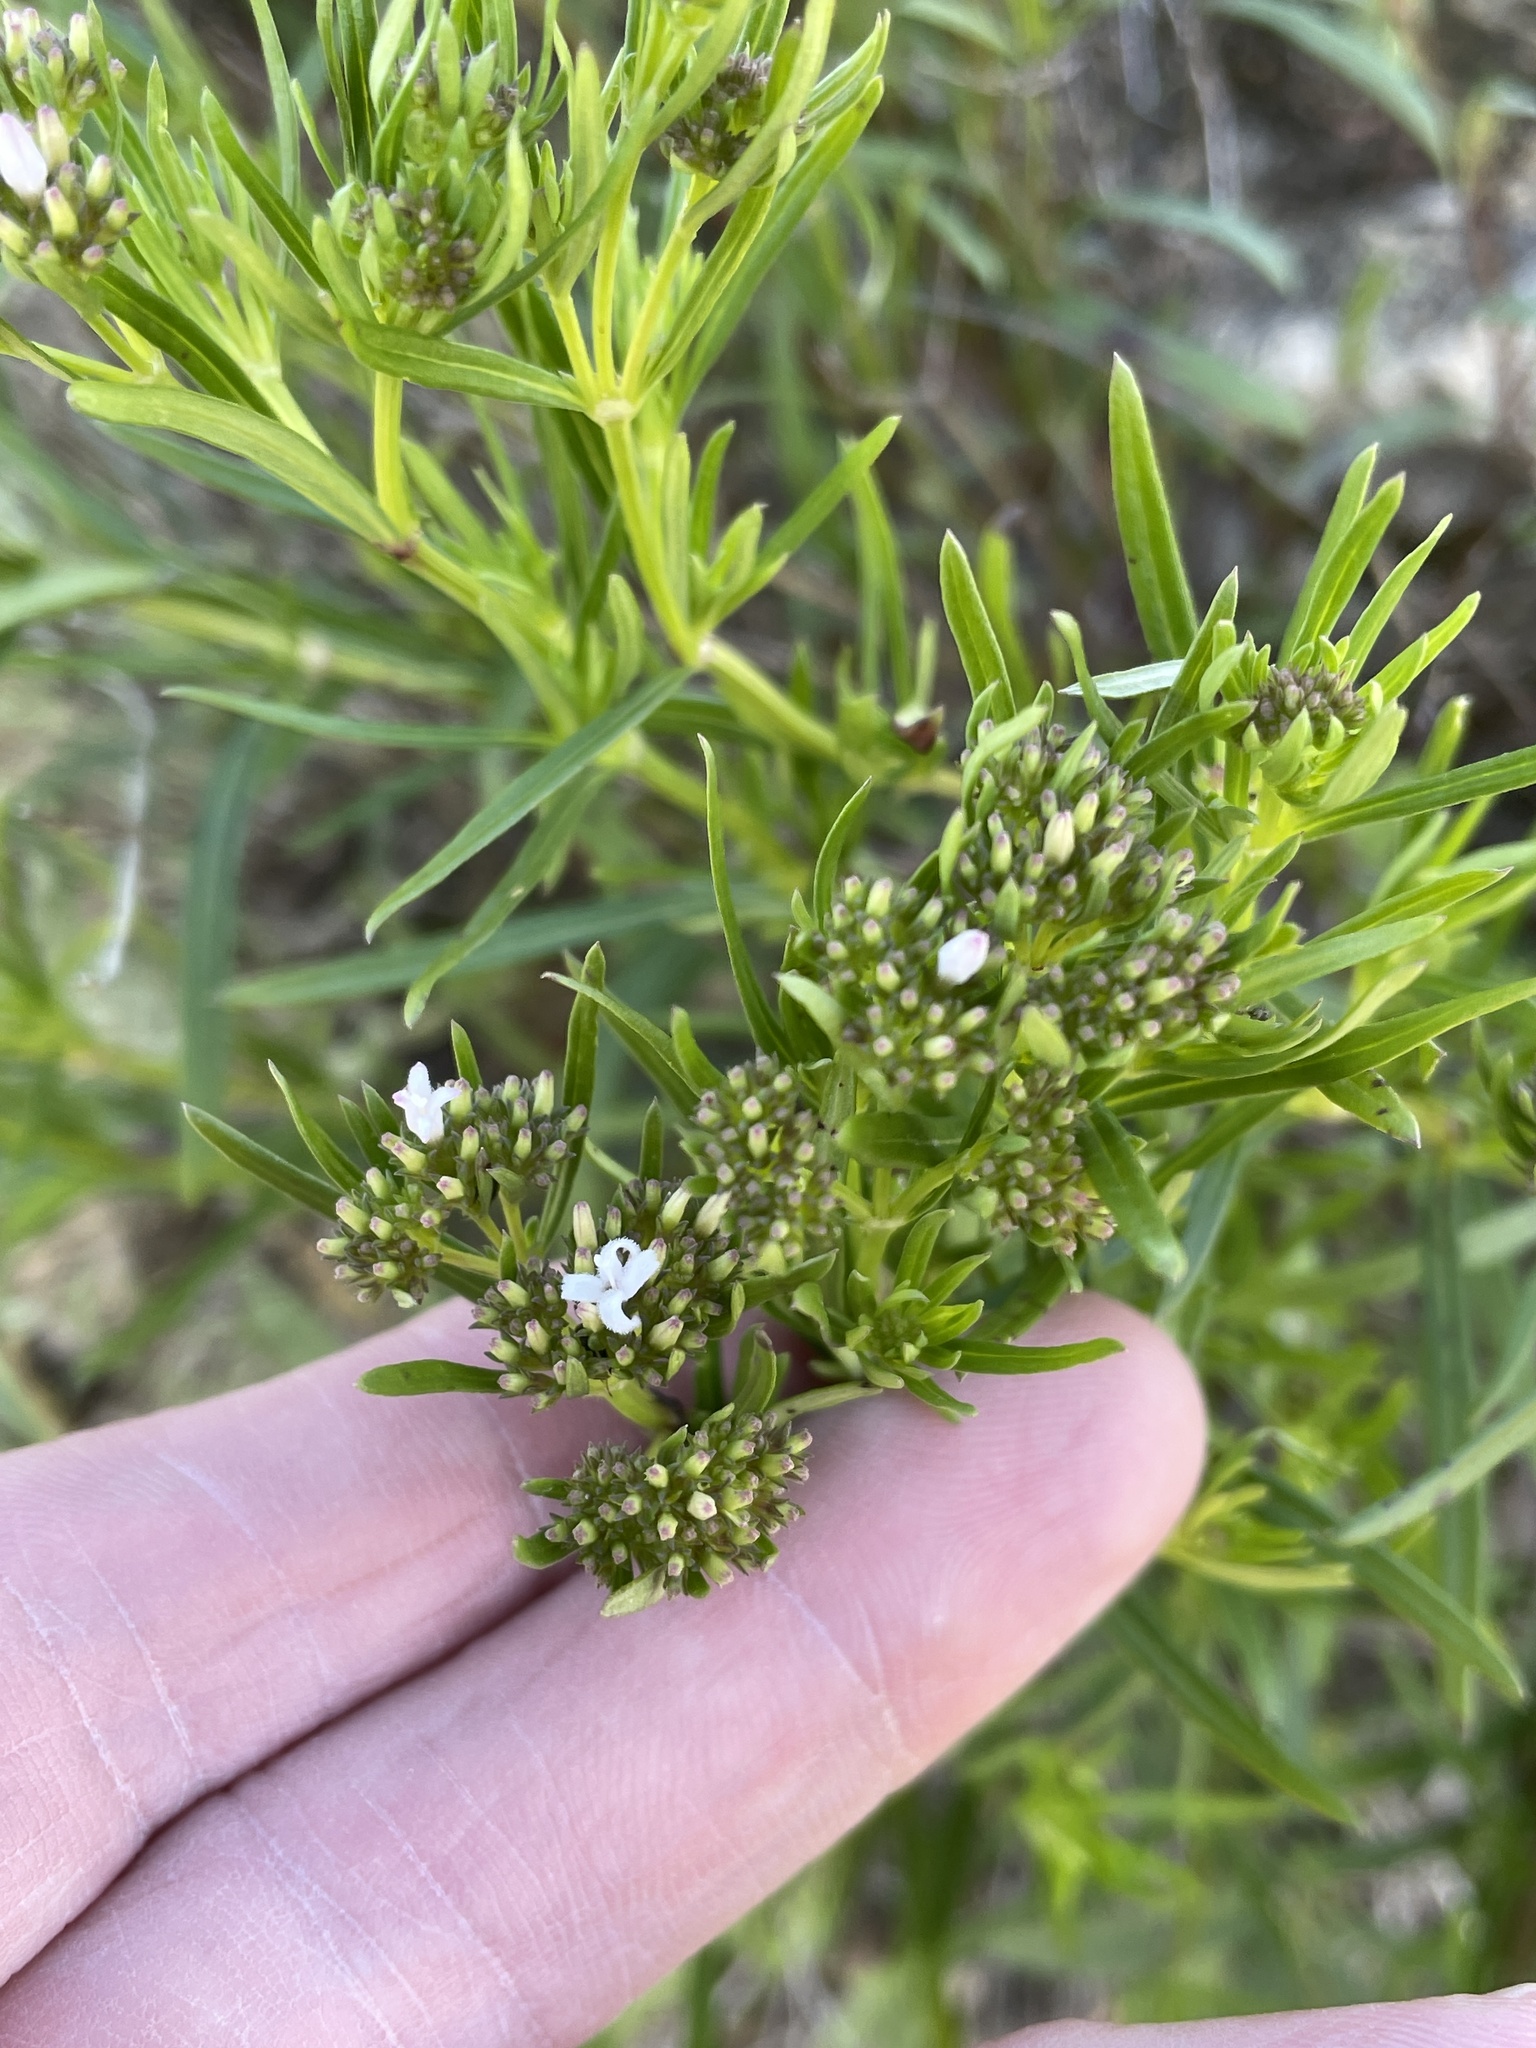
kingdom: Plantae
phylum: Tracheophyta
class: Magnoliopsida
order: Gentianales
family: Rubiaceae
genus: Stenaria
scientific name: Stenaria nigricans
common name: Diamondflowers
